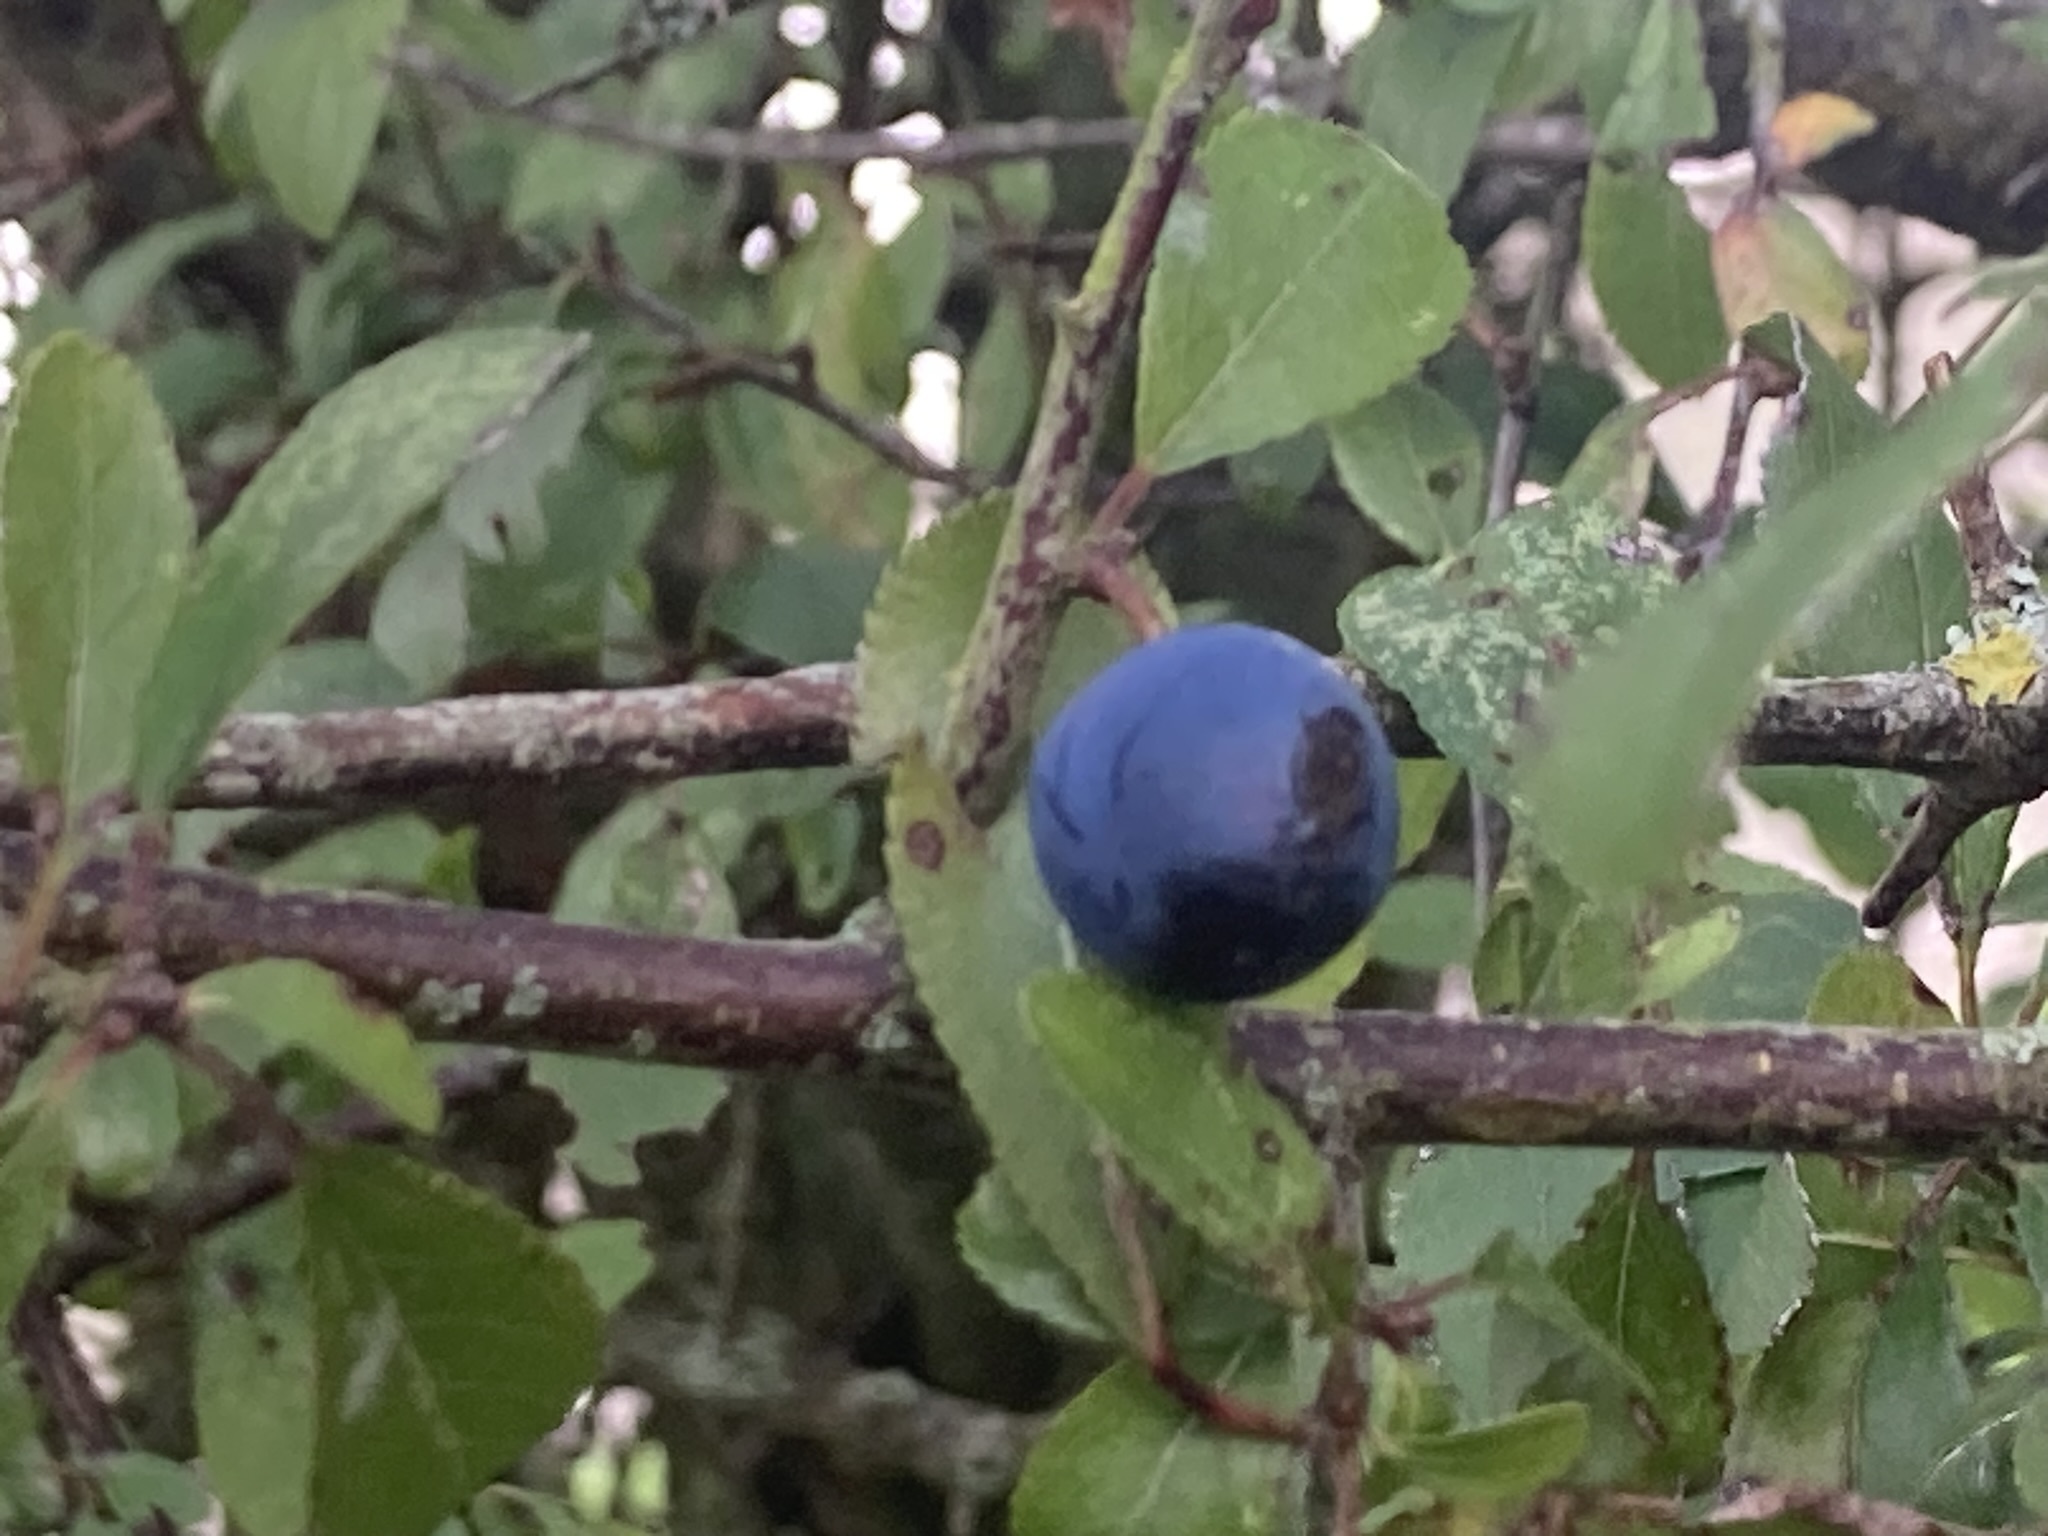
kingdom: Plantae
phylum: Tracheophyta
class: Magnoliopsida
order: Rosales
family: Rosaceae
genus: Prunus
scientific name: Prunus spinosa
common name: Blackthorn
